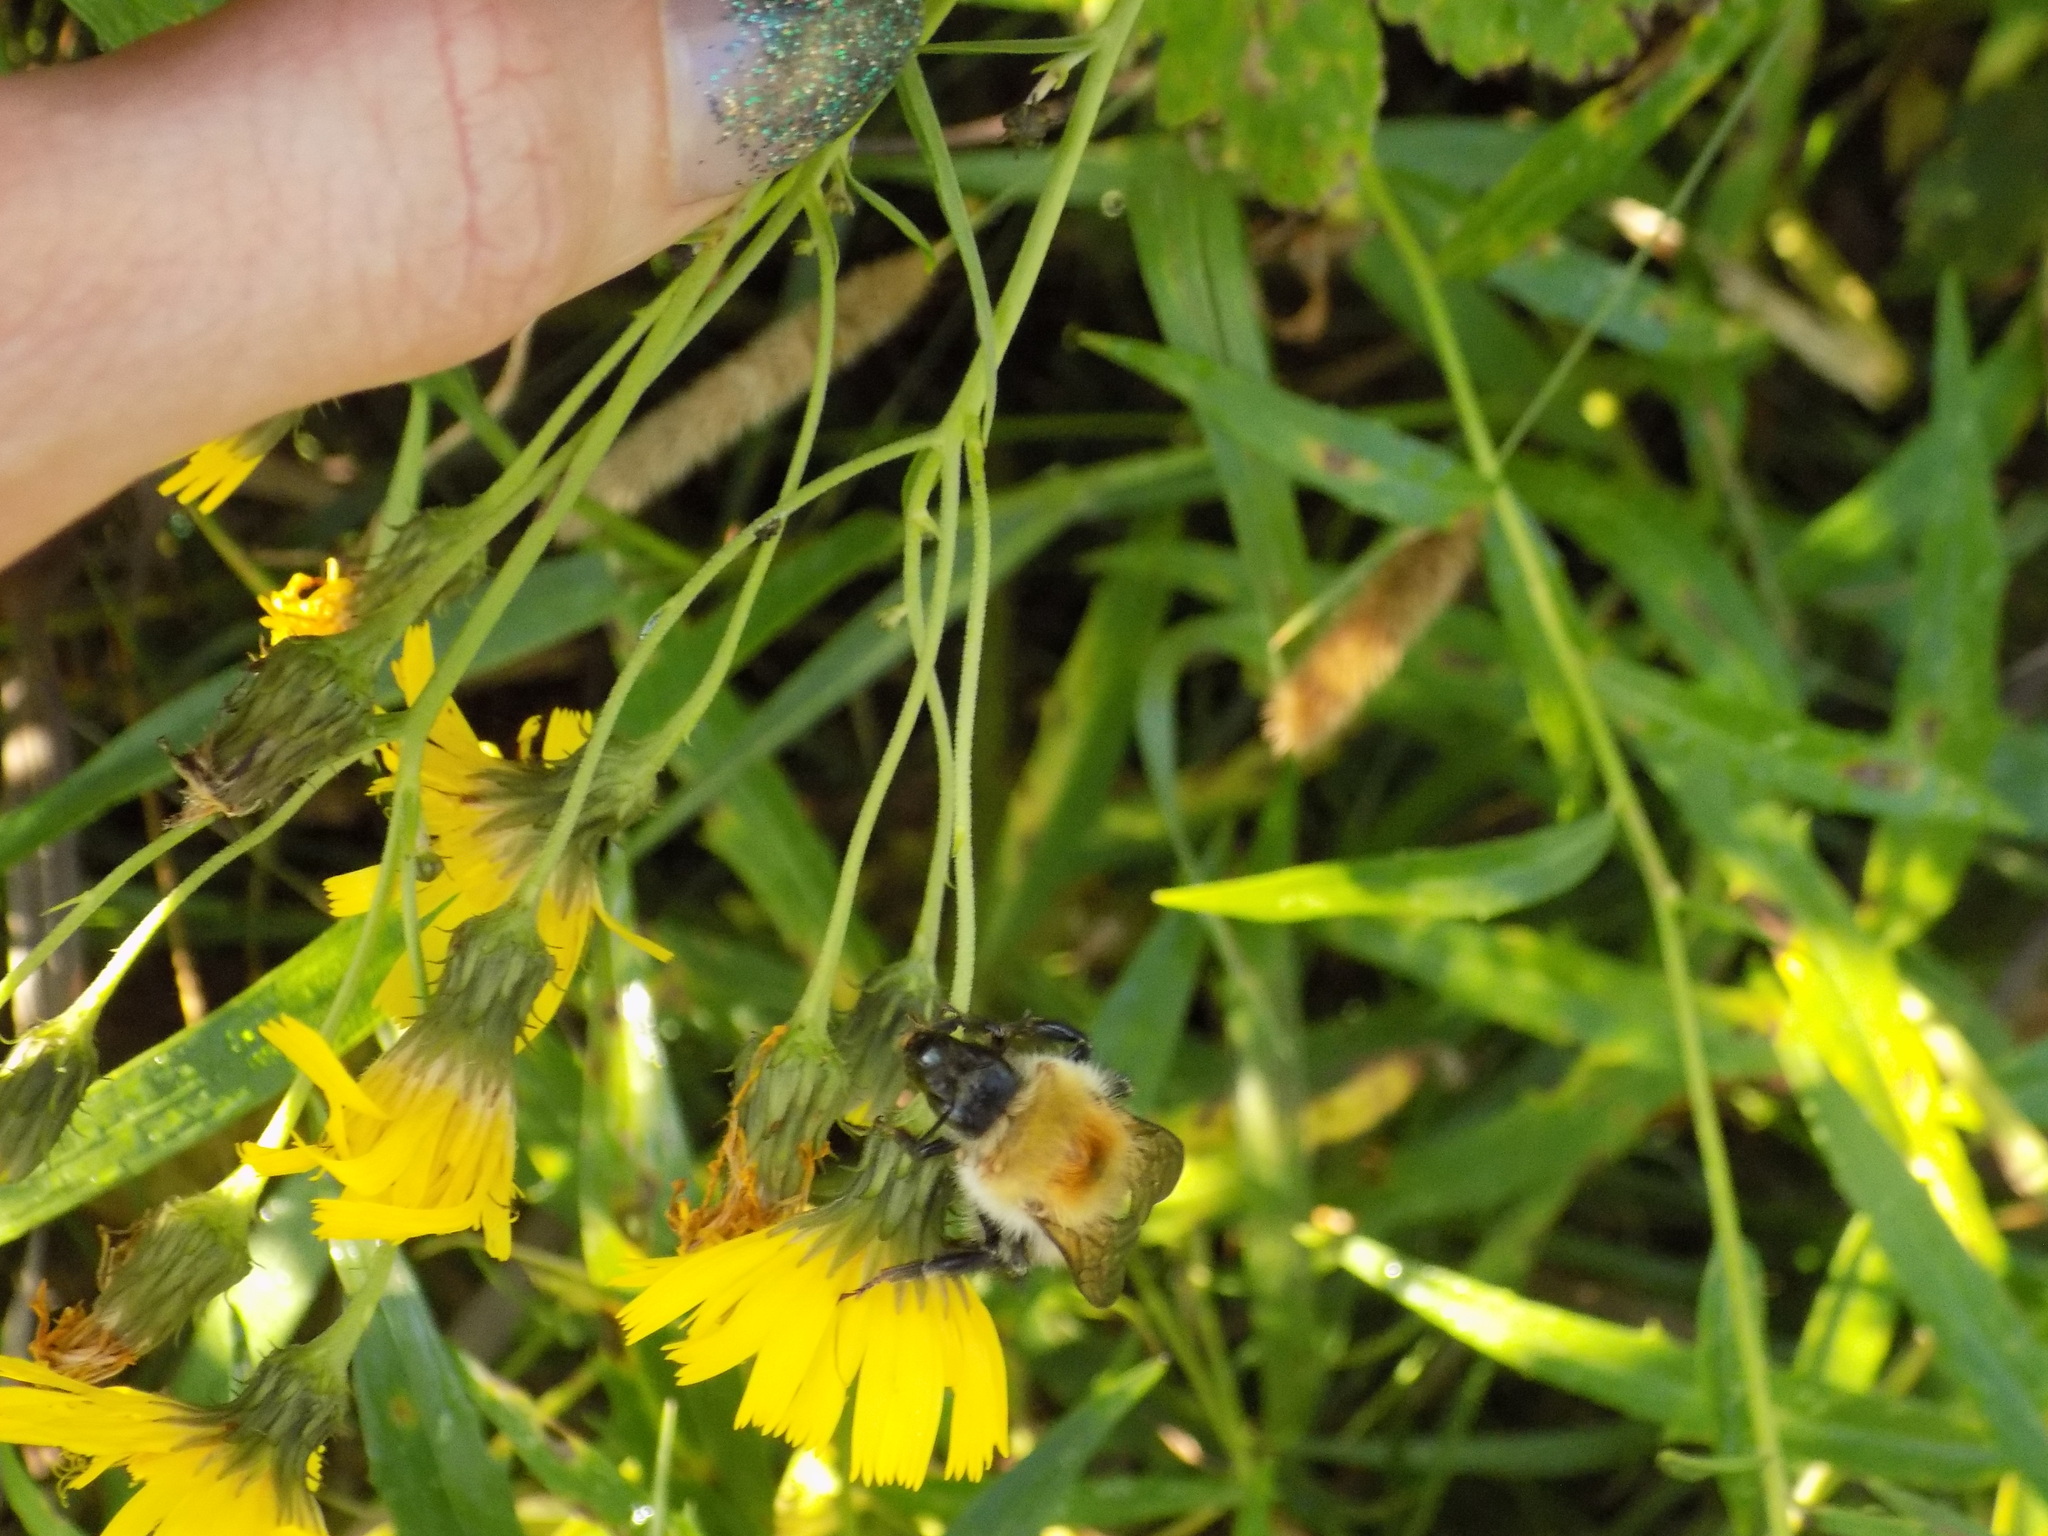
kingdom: Animalia
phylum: Arthropoda
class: Insecta
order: Hymenoptera
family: Apidae
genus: Bombus
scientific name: Bombus consobrinus
